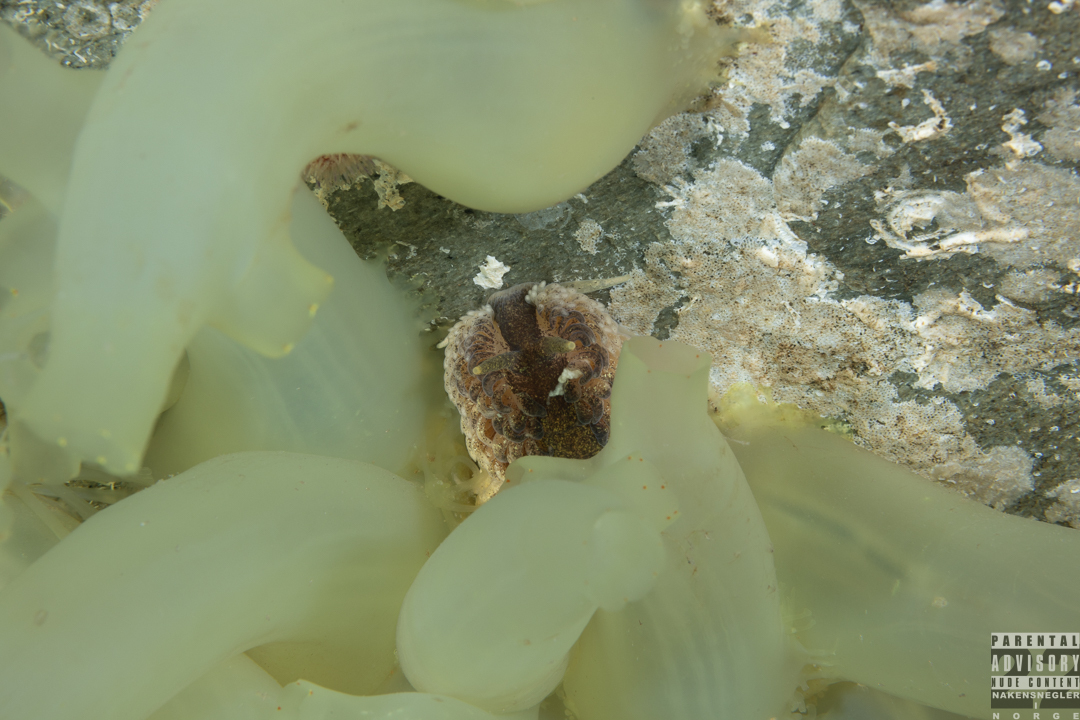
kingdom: Animalia
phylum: Mollusca
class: Gastropoda
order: Nudibranchia
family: Aeolidiidae
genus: Aeolidia
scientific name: Aeolidia papillosa
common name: Common grey sea slug
